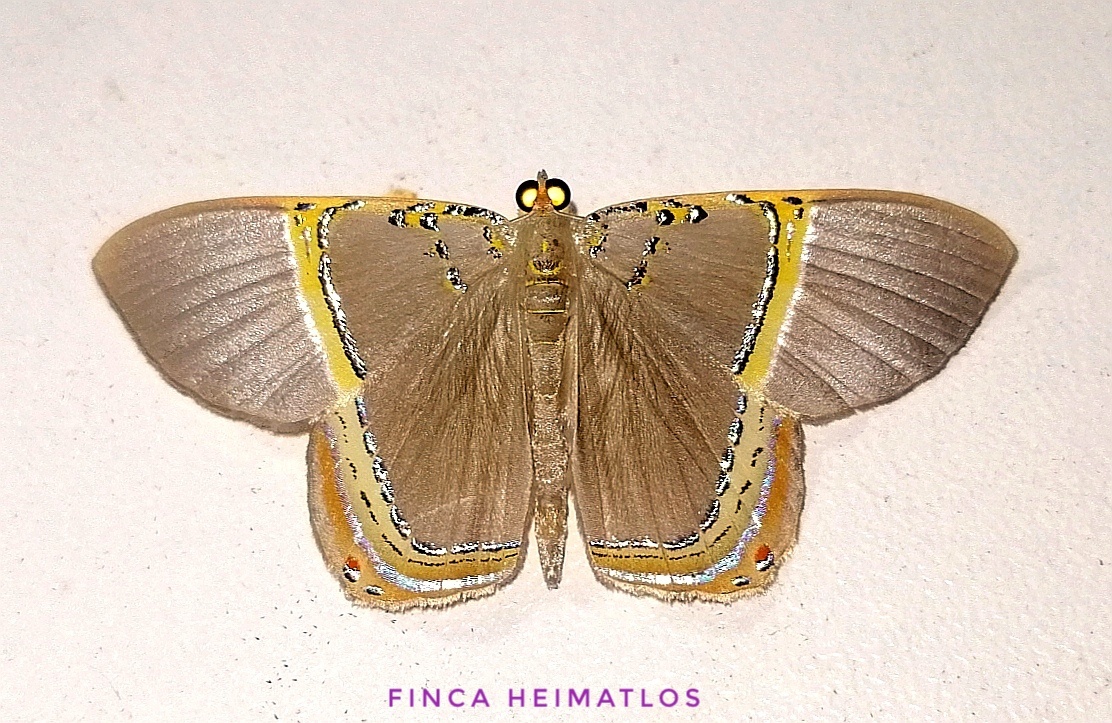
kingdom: Animalia
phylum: Arthropoda
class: Insecta
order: Lepidoptera
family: Geometridae
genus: Phrygionis
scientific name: Phrygionis privignaria
